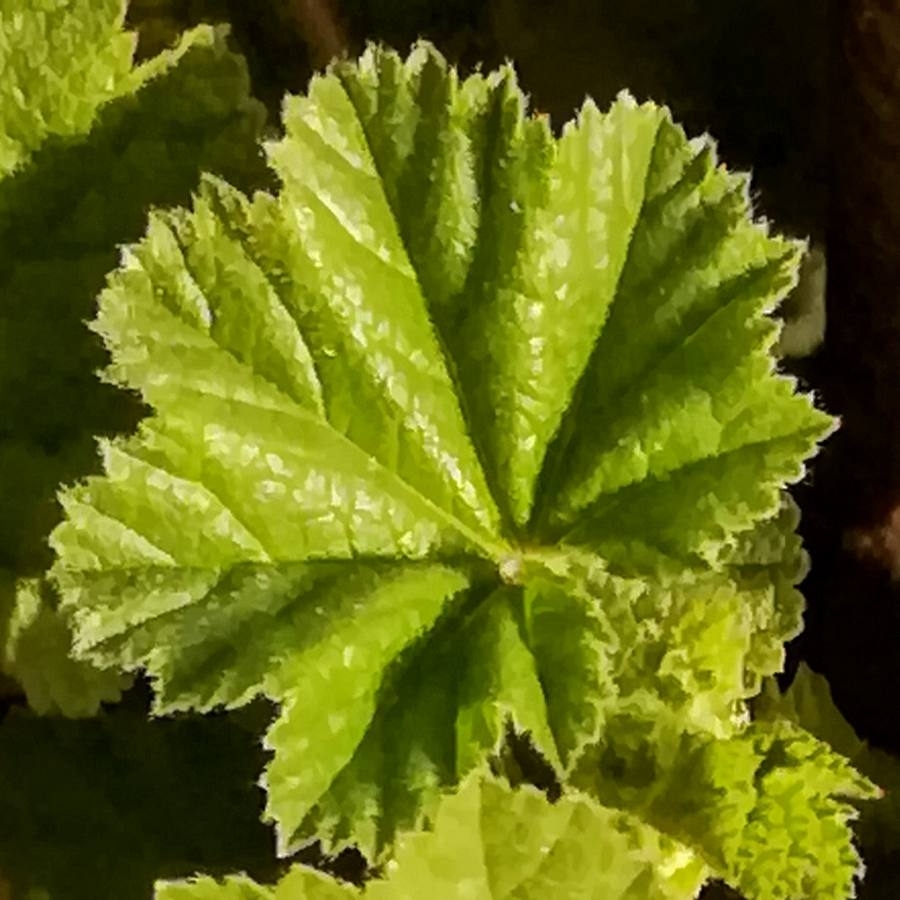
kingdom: Plantae
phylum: Tracheophyta
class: Magnoliopsida
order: Malvales
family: Malvaceae
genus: Malva
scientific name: Malva sylvestris
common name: Common mallow
